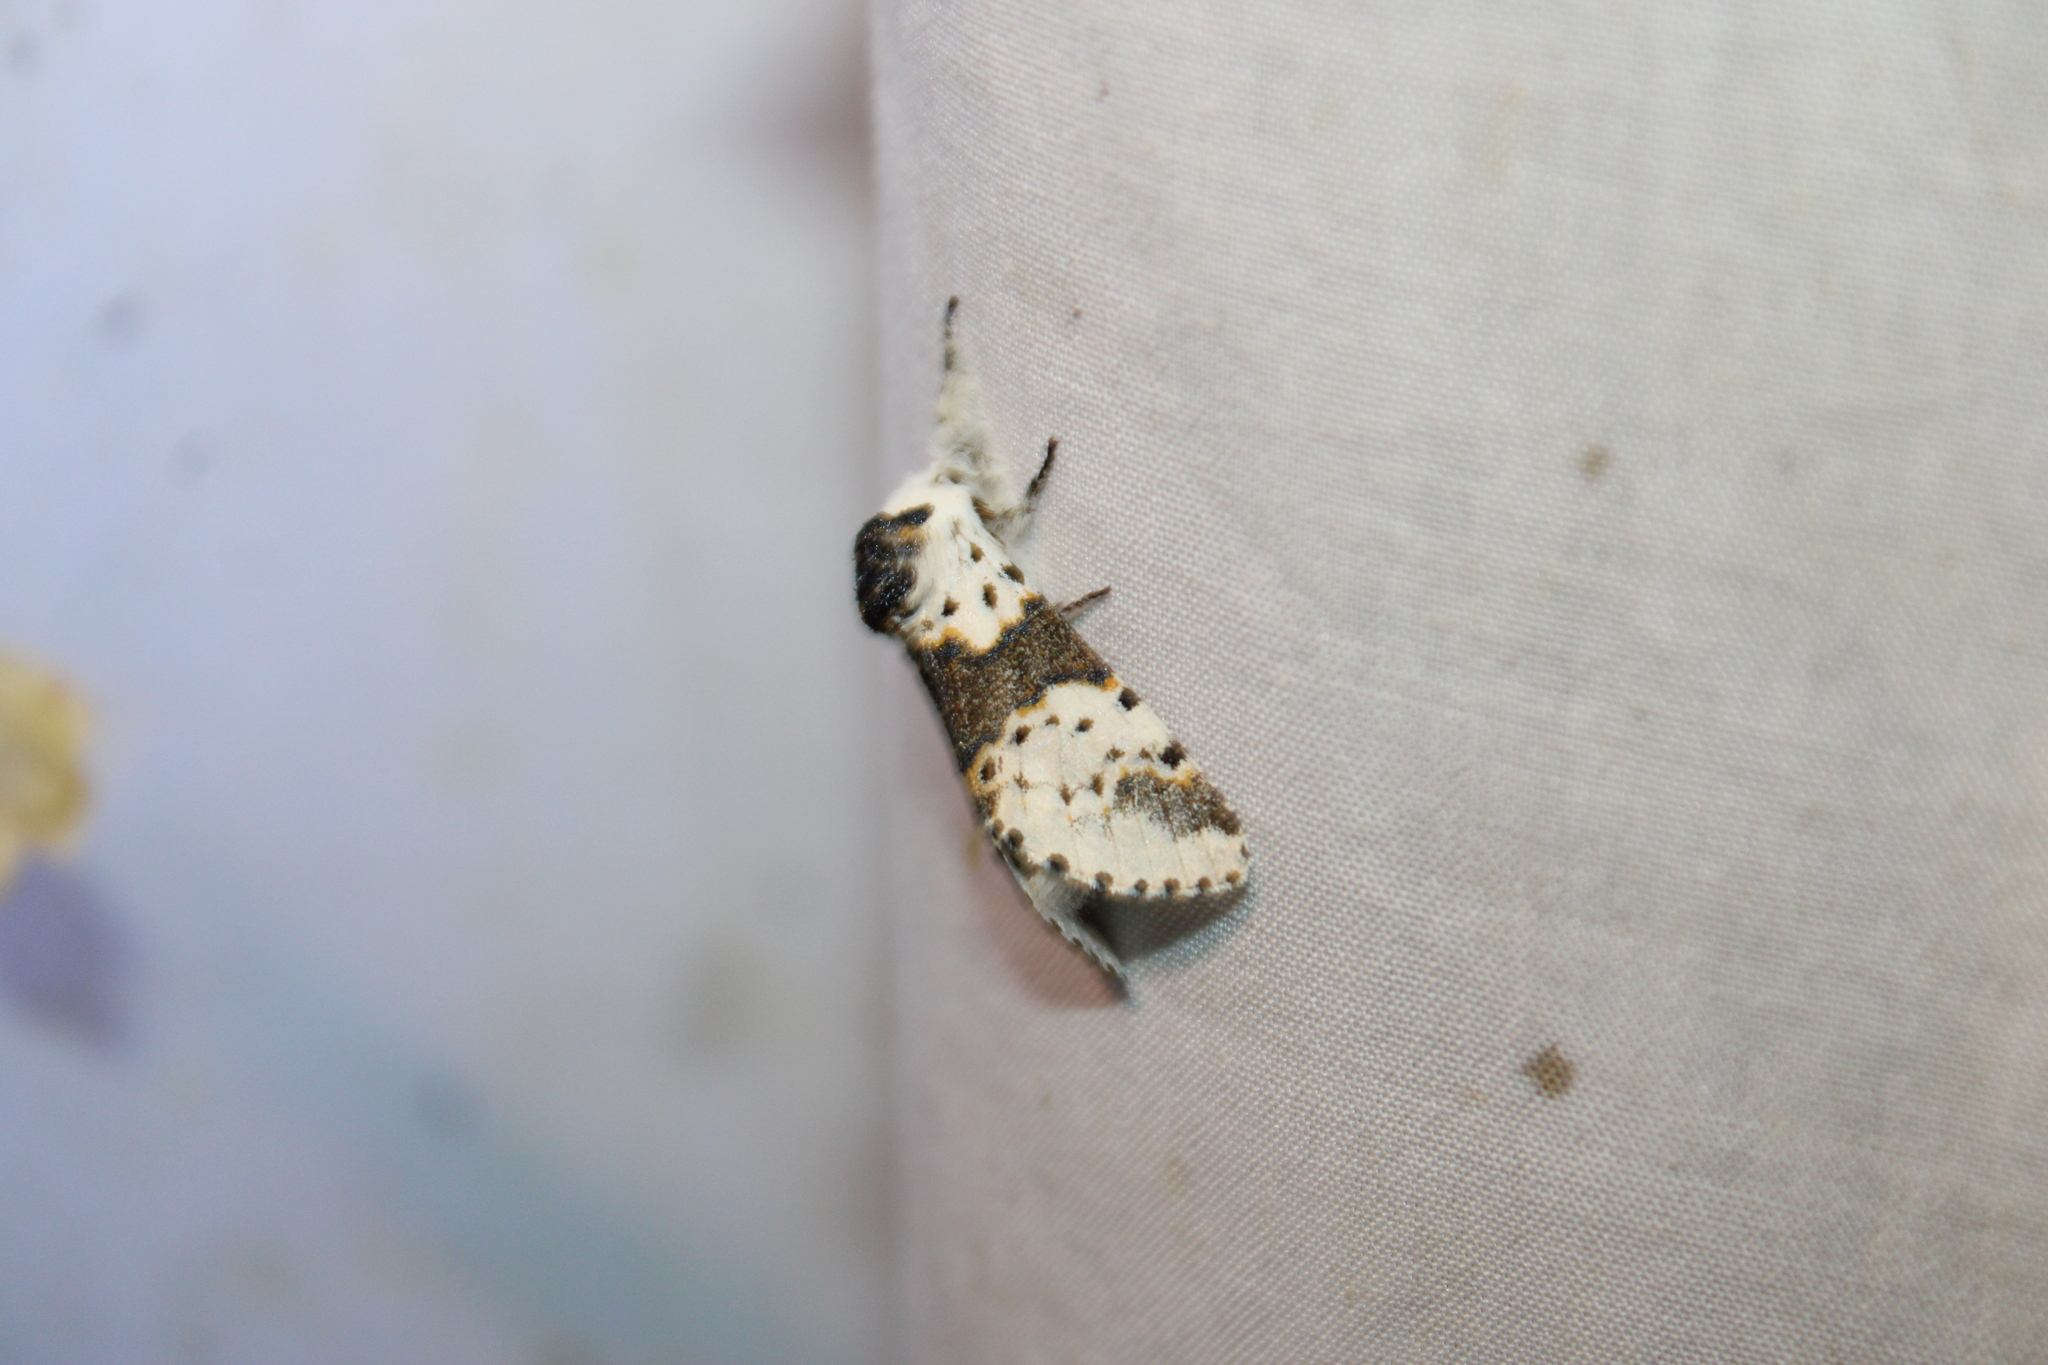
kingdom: Animalia
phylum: Arthropoda
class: Insecta
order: Lepidoptera
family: Notodontidae
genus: Furcula
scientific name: Furcula borealis
